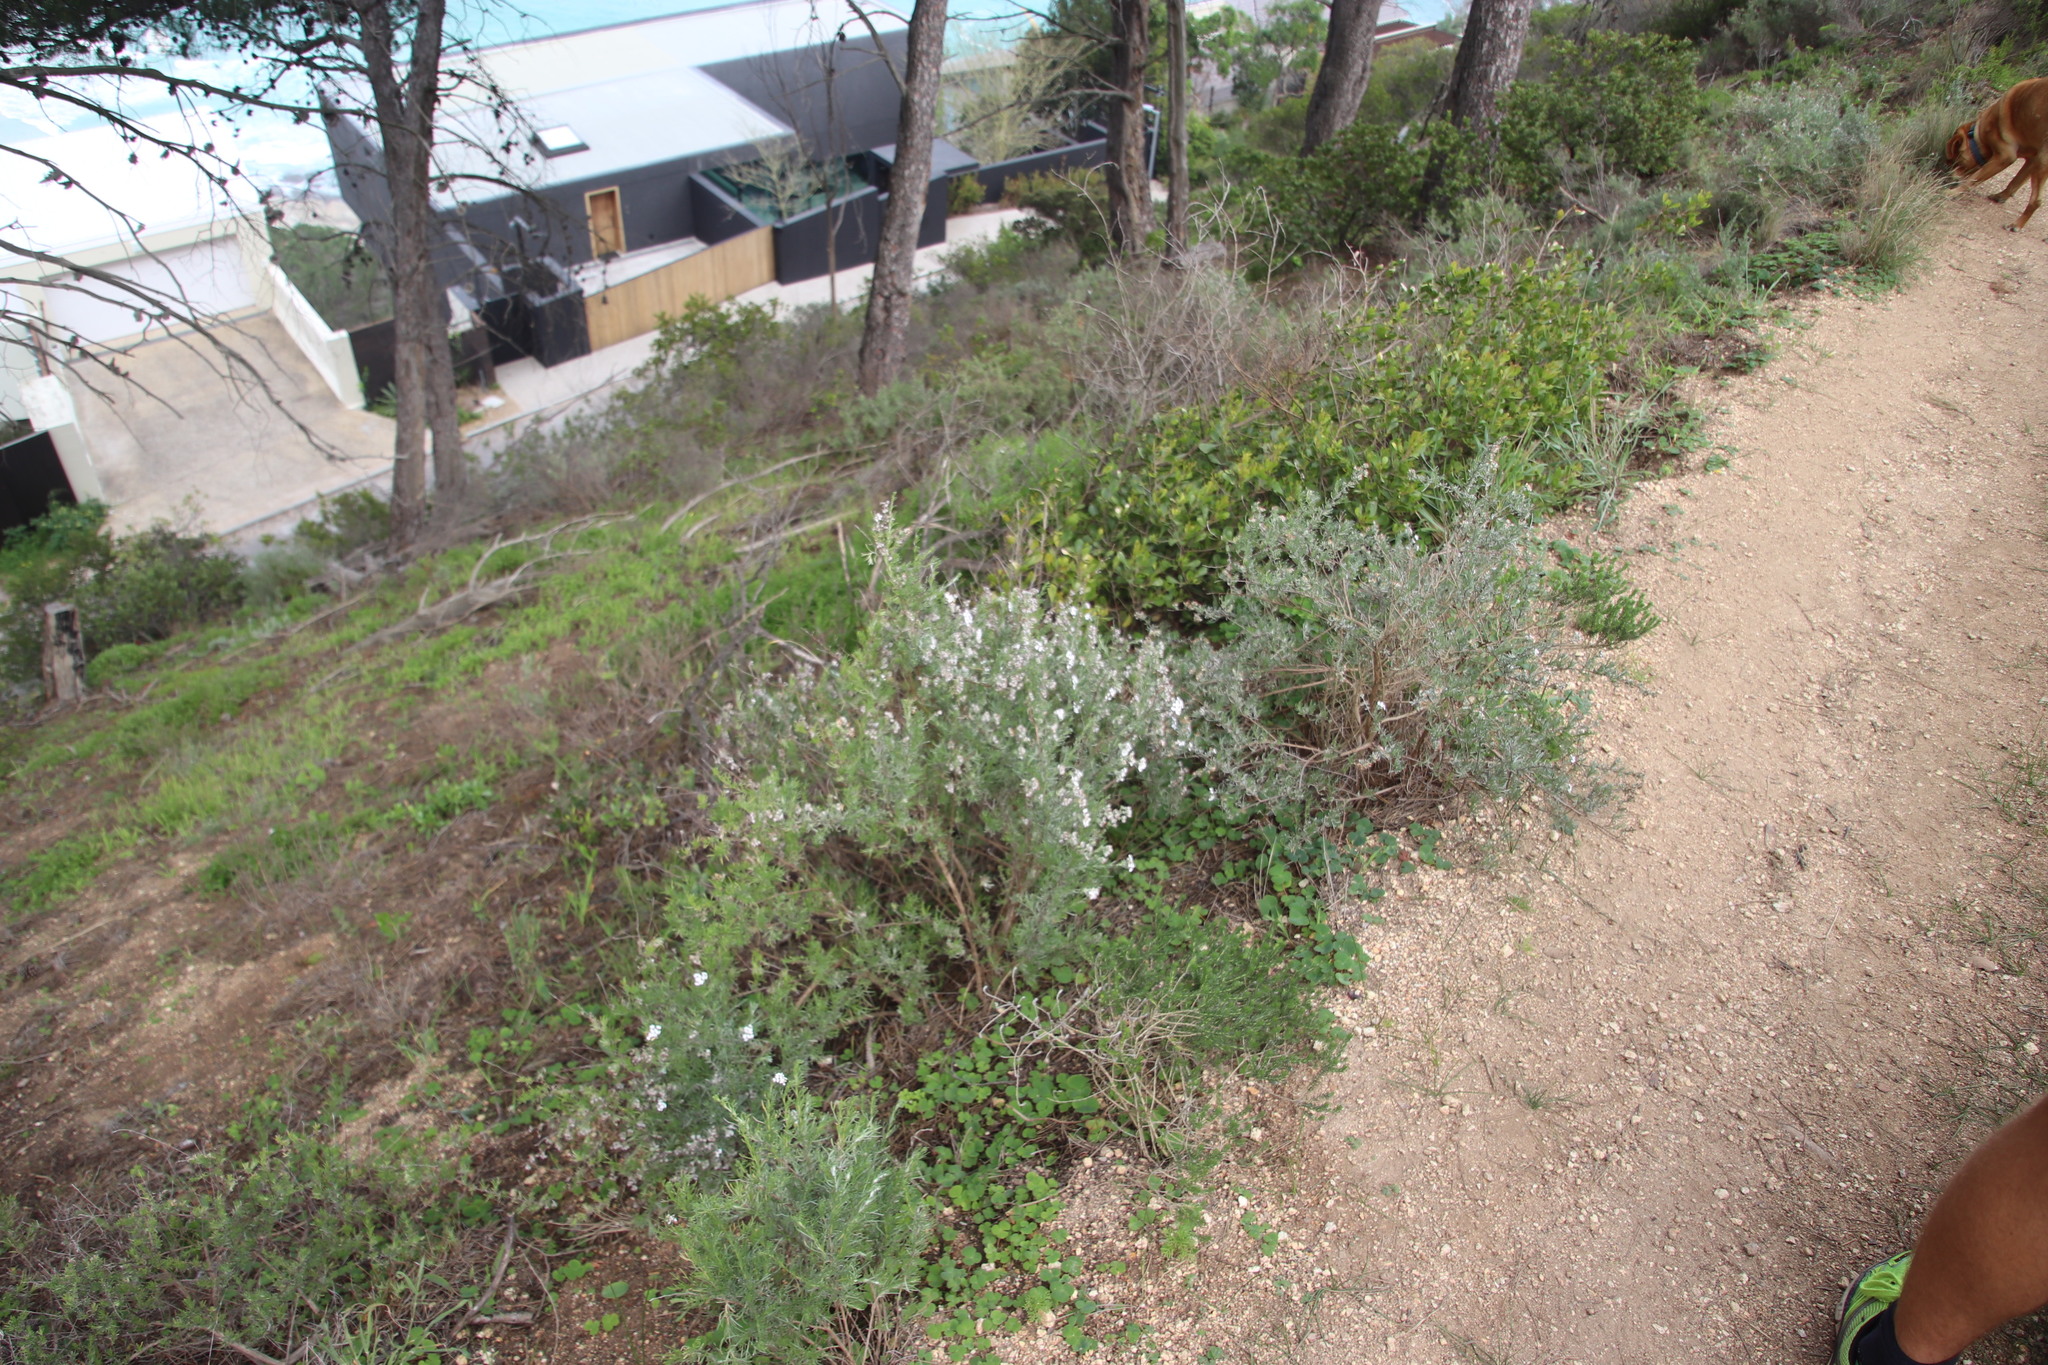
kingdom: Plantae
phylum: Tracheophyta
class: Magnoliopsida
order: Asterales
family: Asteraceae
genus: Eriocephalus
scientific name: Eriocephalus africanus
